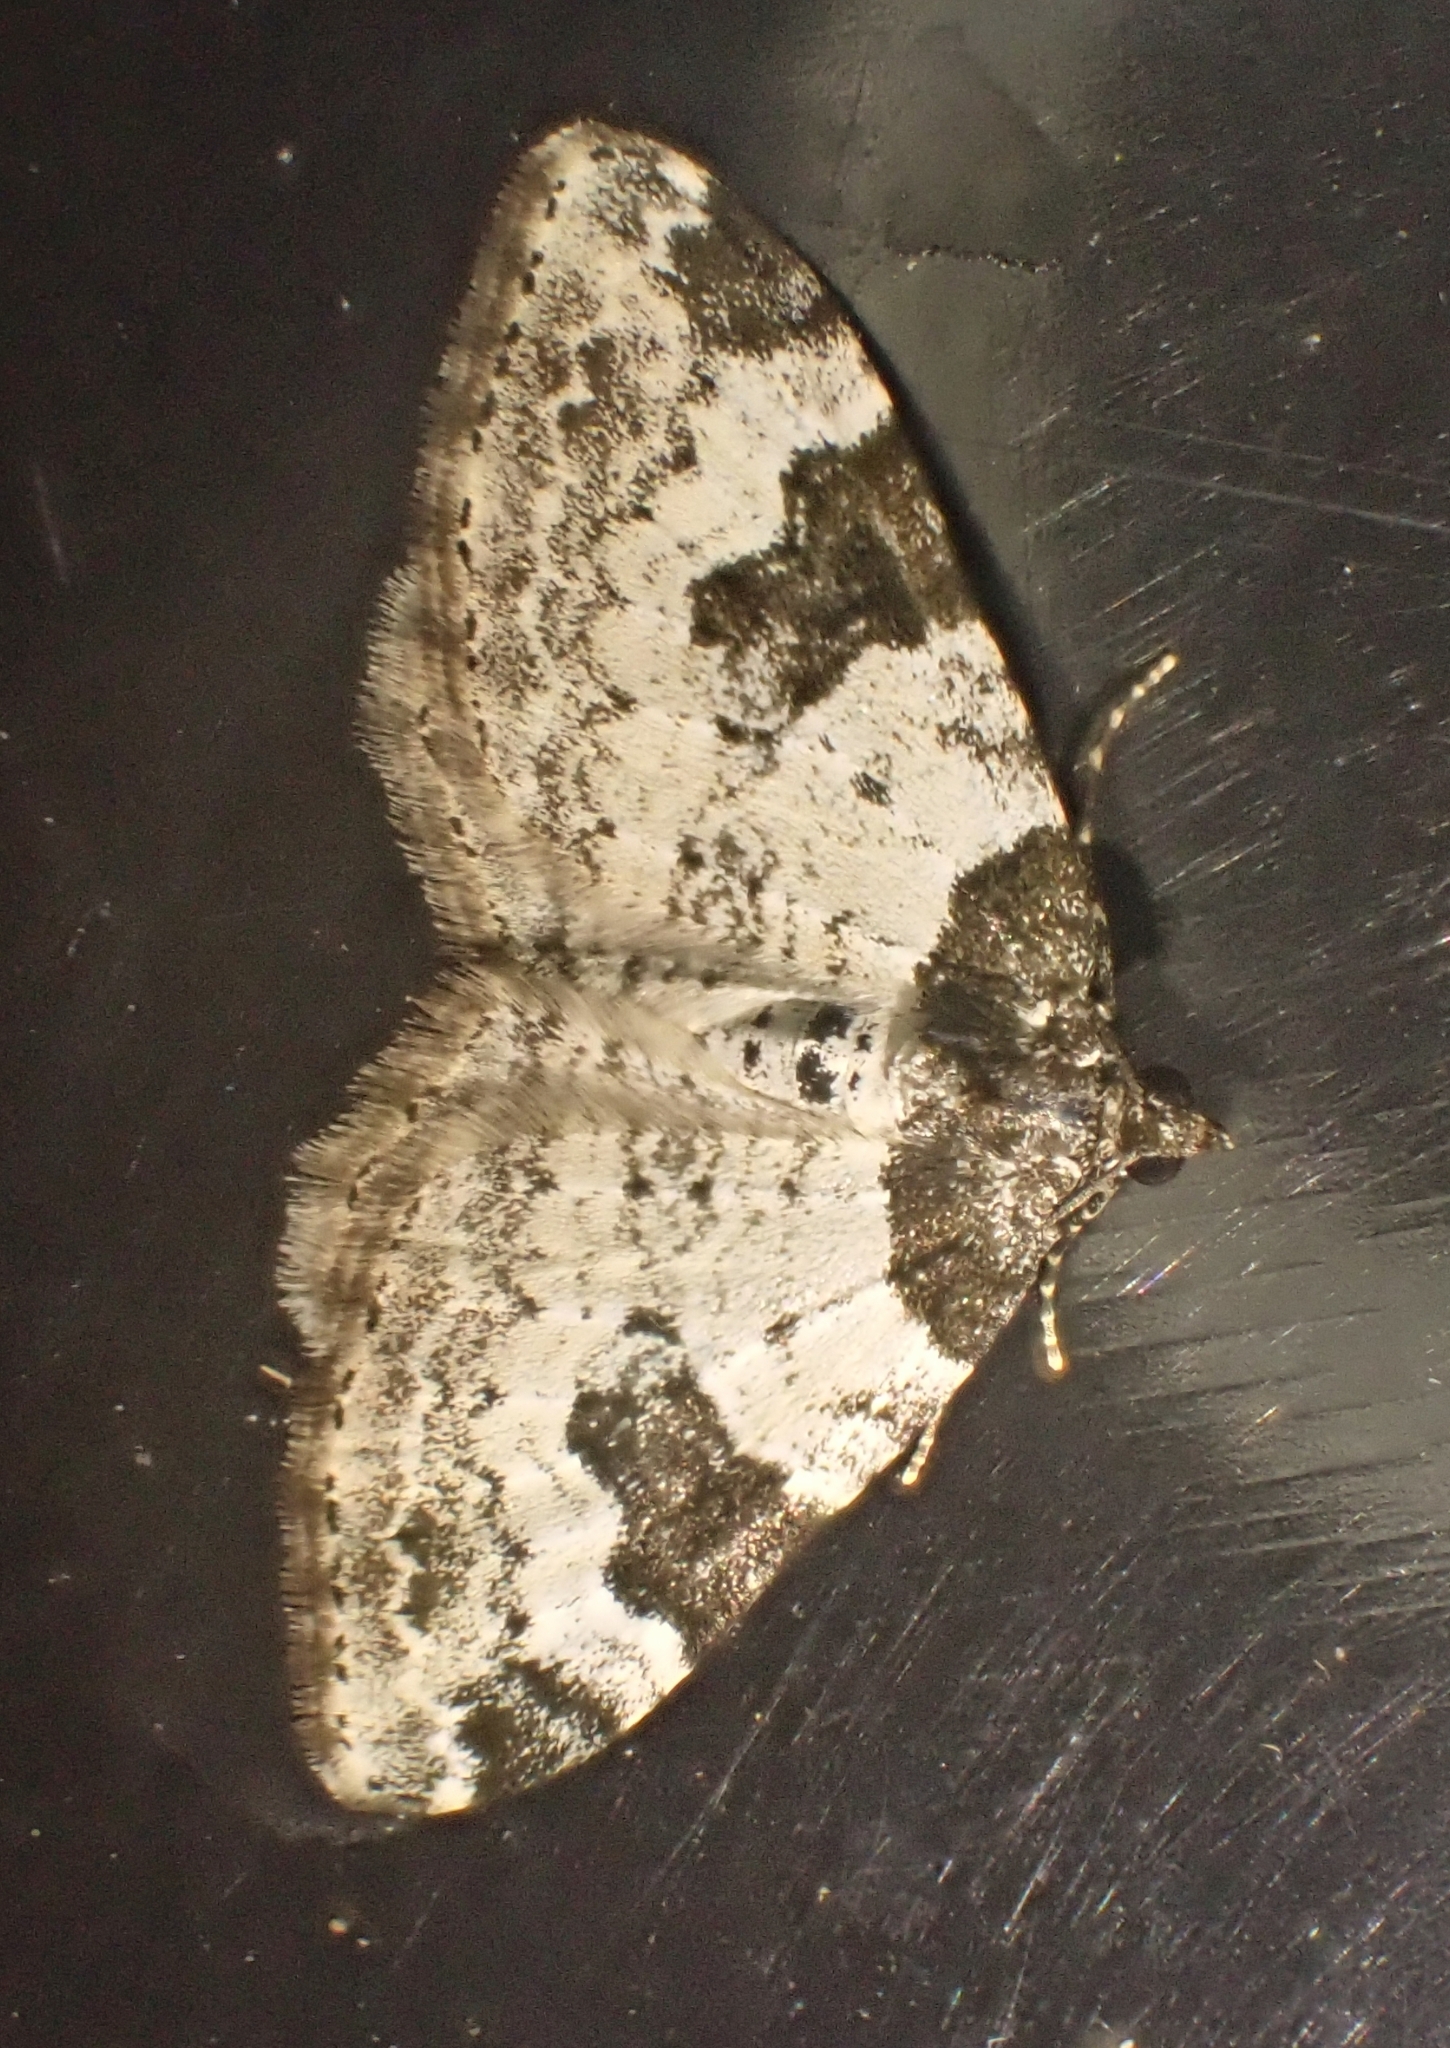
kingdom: Animalia
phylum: Arthropoda
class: Insecta
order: Lepidoptera
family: Geometridae
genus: Xanthorhoe
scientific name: Xanthorhoe fluctuata
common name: Garden carpet
